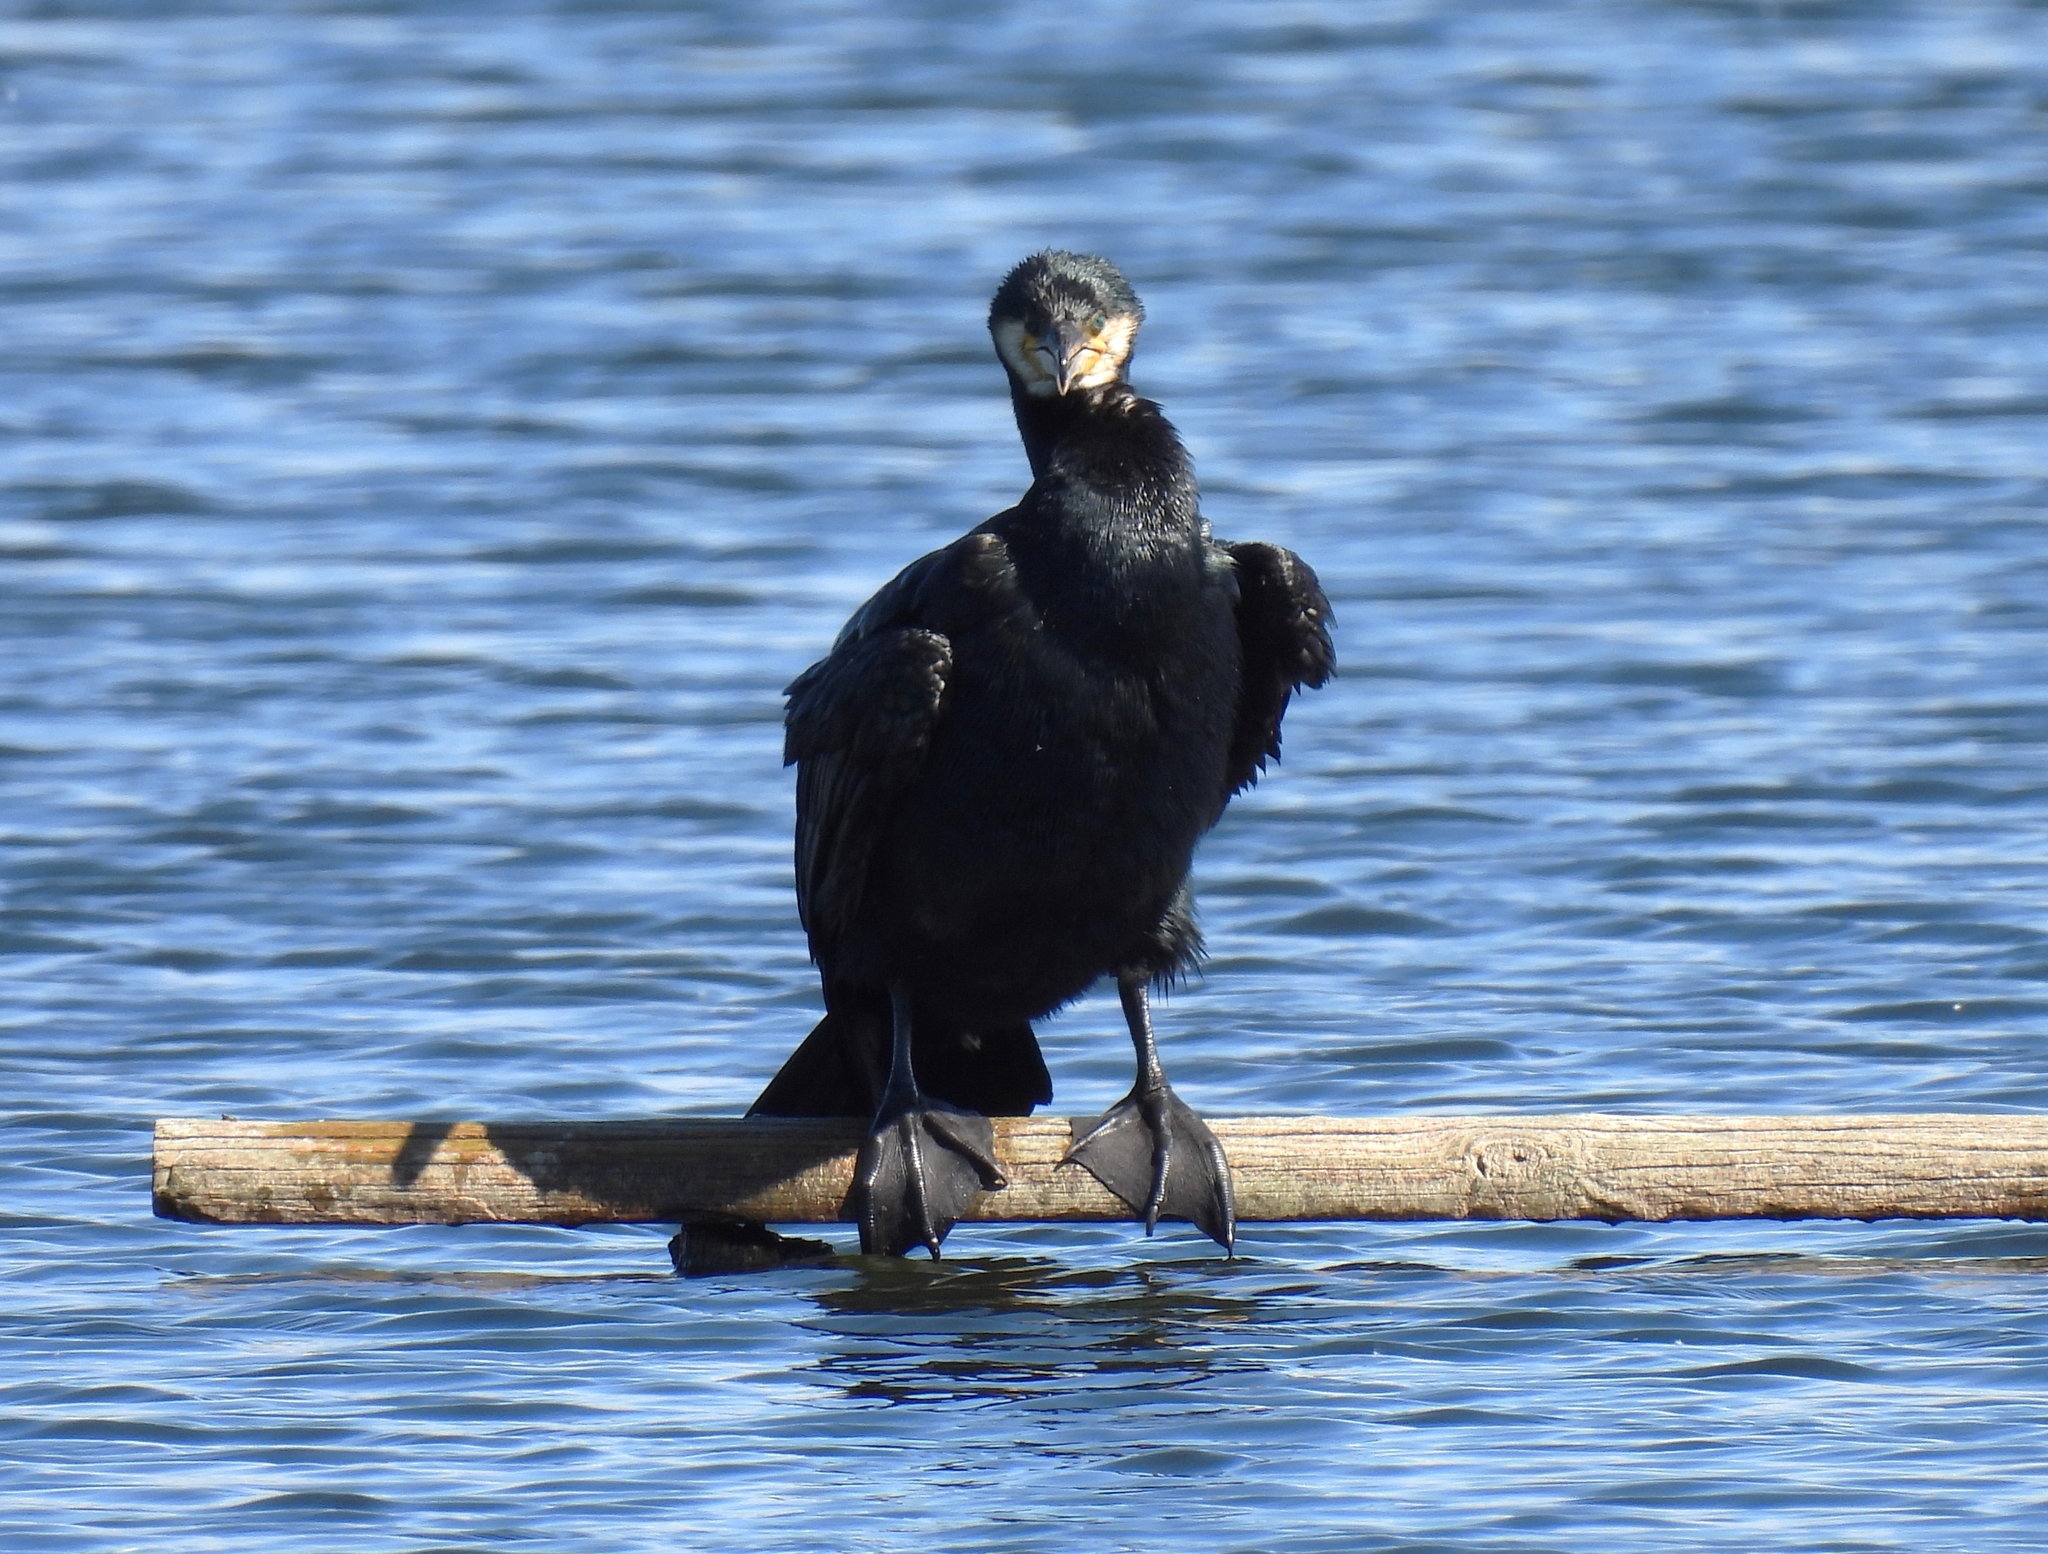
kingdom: Animalia
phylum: Chordata
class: Aves
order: Suliformes
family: Phalacrocoracidae
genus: Phalacrocorax
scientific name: Phalacrocorax carbo
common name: Great cormorant
